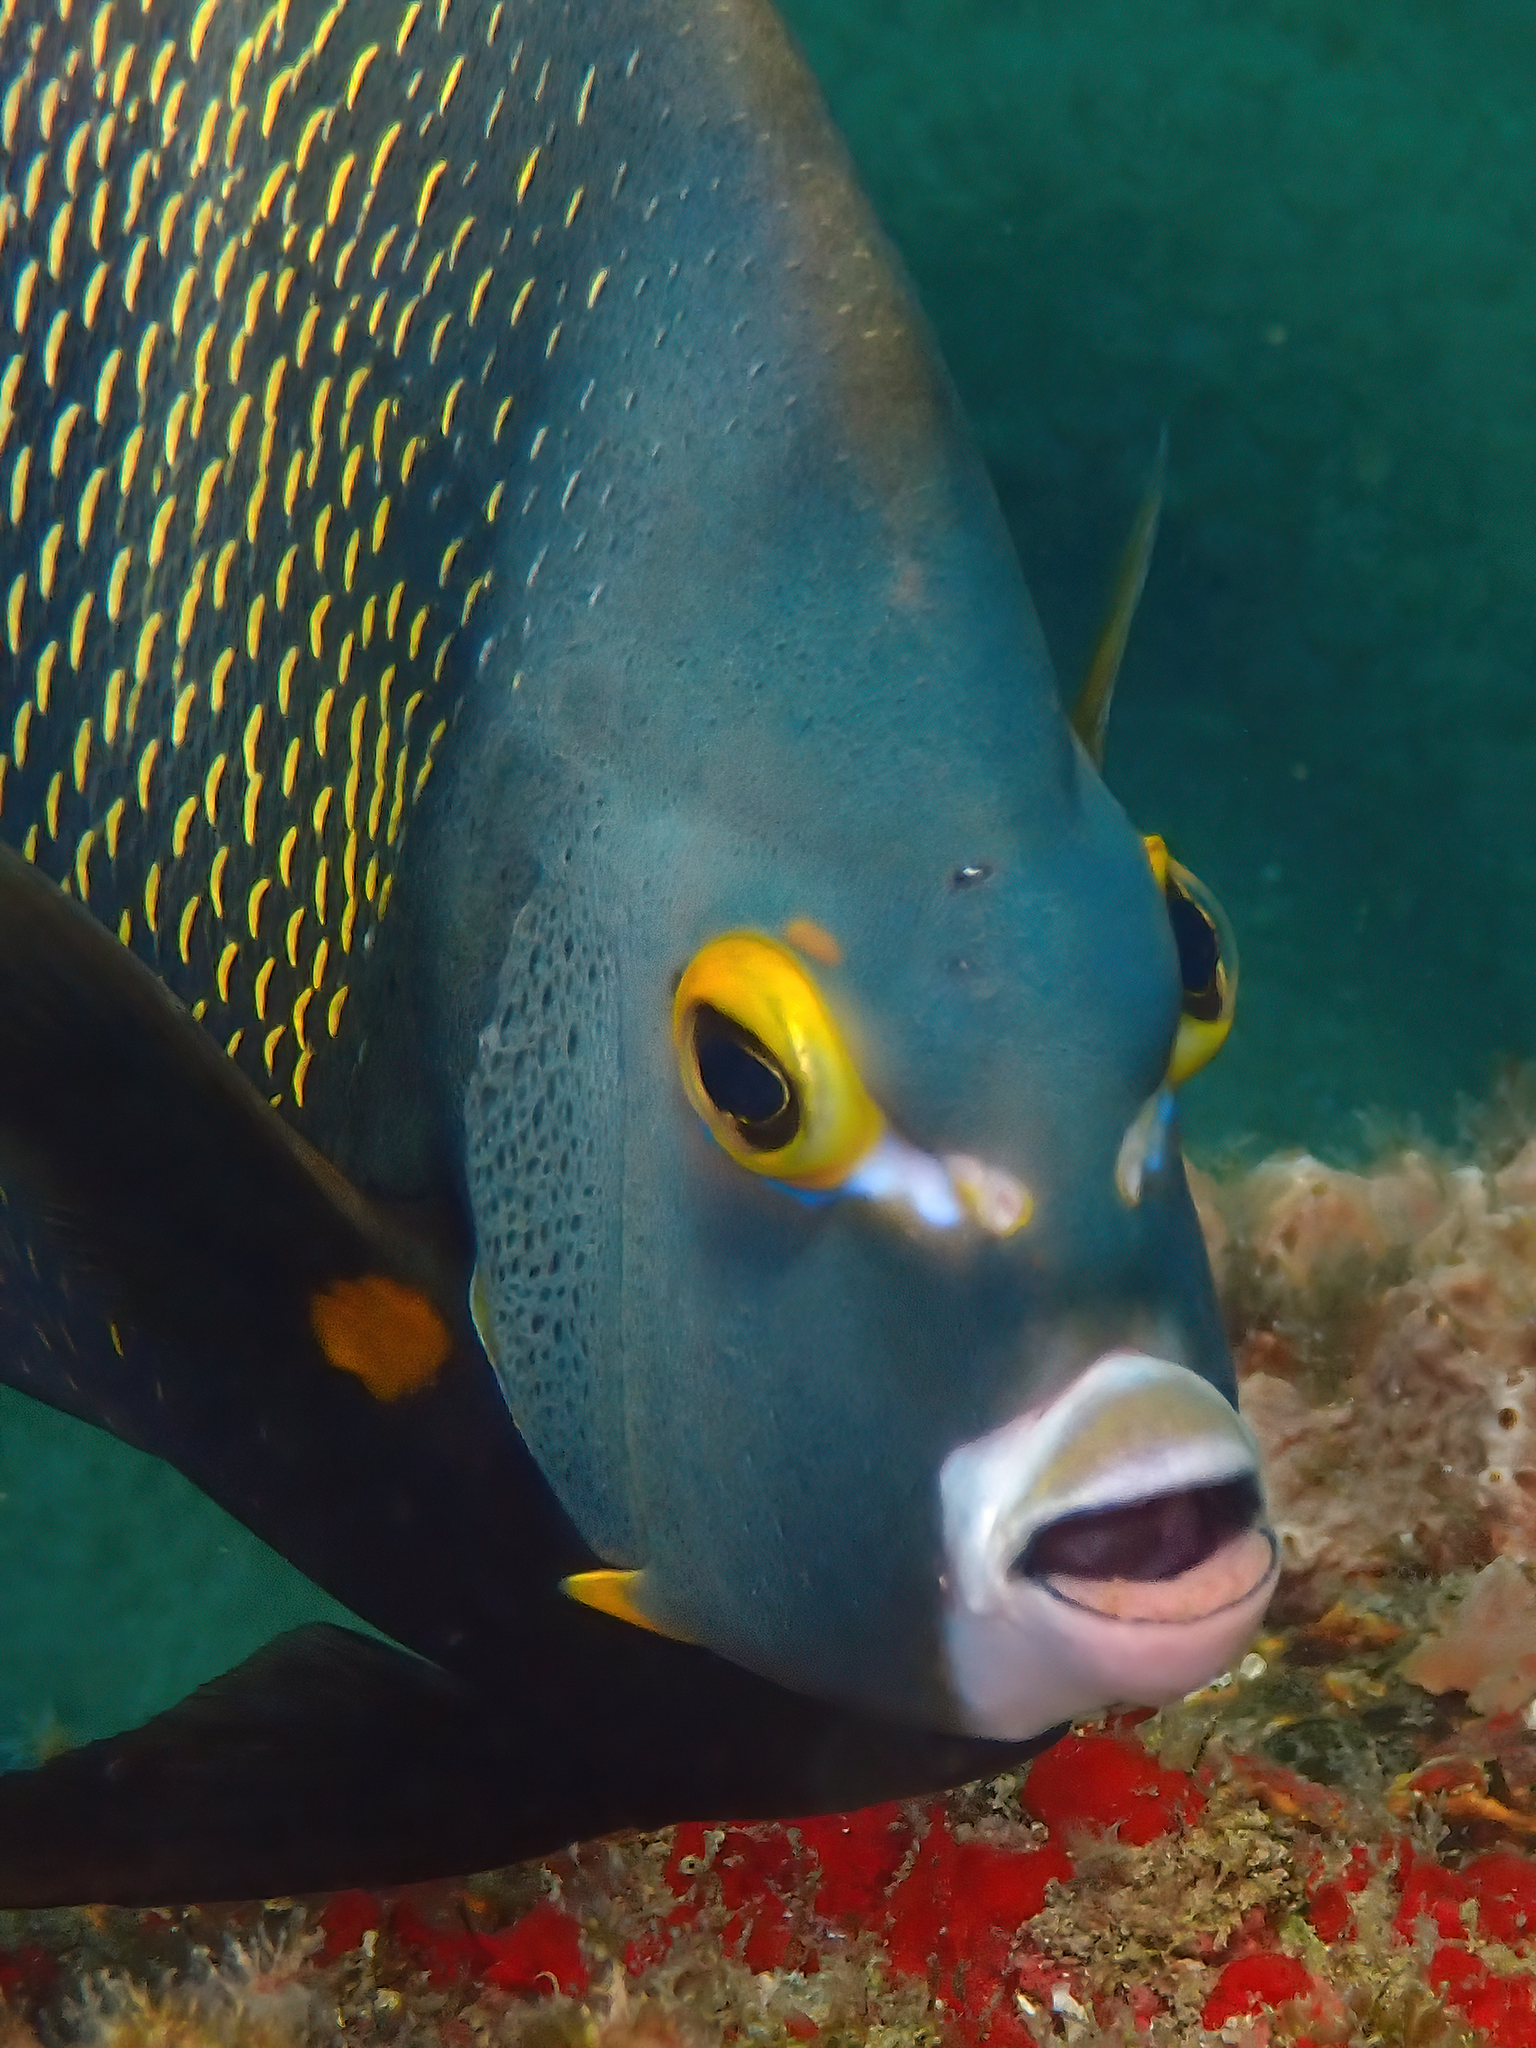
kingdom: Animalia
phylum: Chordata
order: Perciformes
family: Pomacanthidae
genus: Pomacanthus
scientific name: Pomacanthus paru
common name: French angelfish
